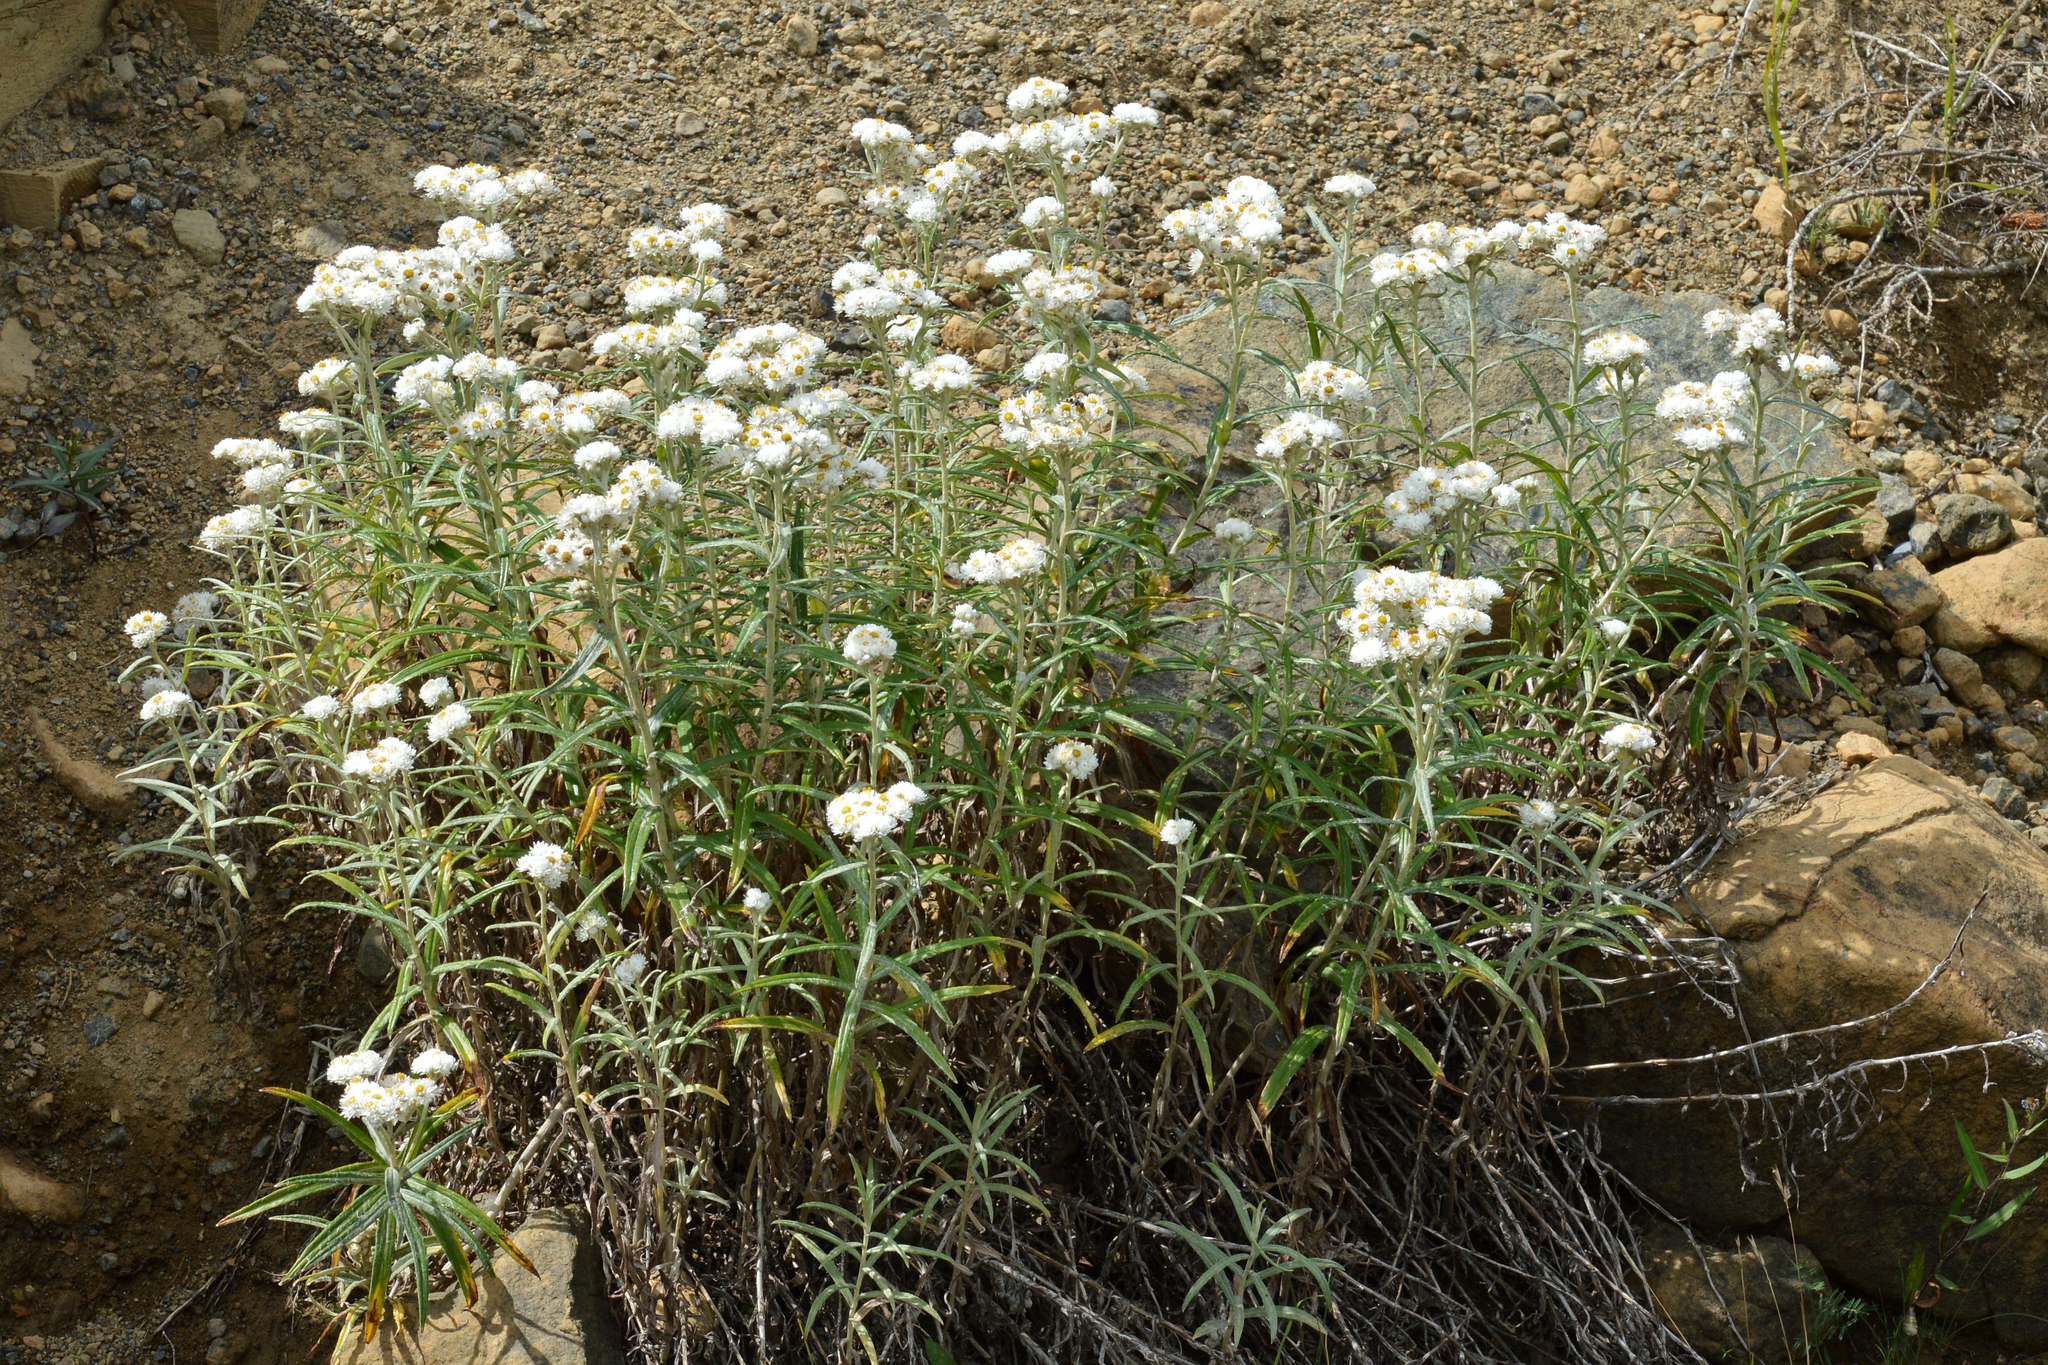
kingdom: Plantae
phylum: Tracheophyta
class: Magnoliopsida
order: Asterales
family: Asteraceae
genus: Anaphalis
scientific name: Anaphalis margaritacea
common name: Pearly everlasting
